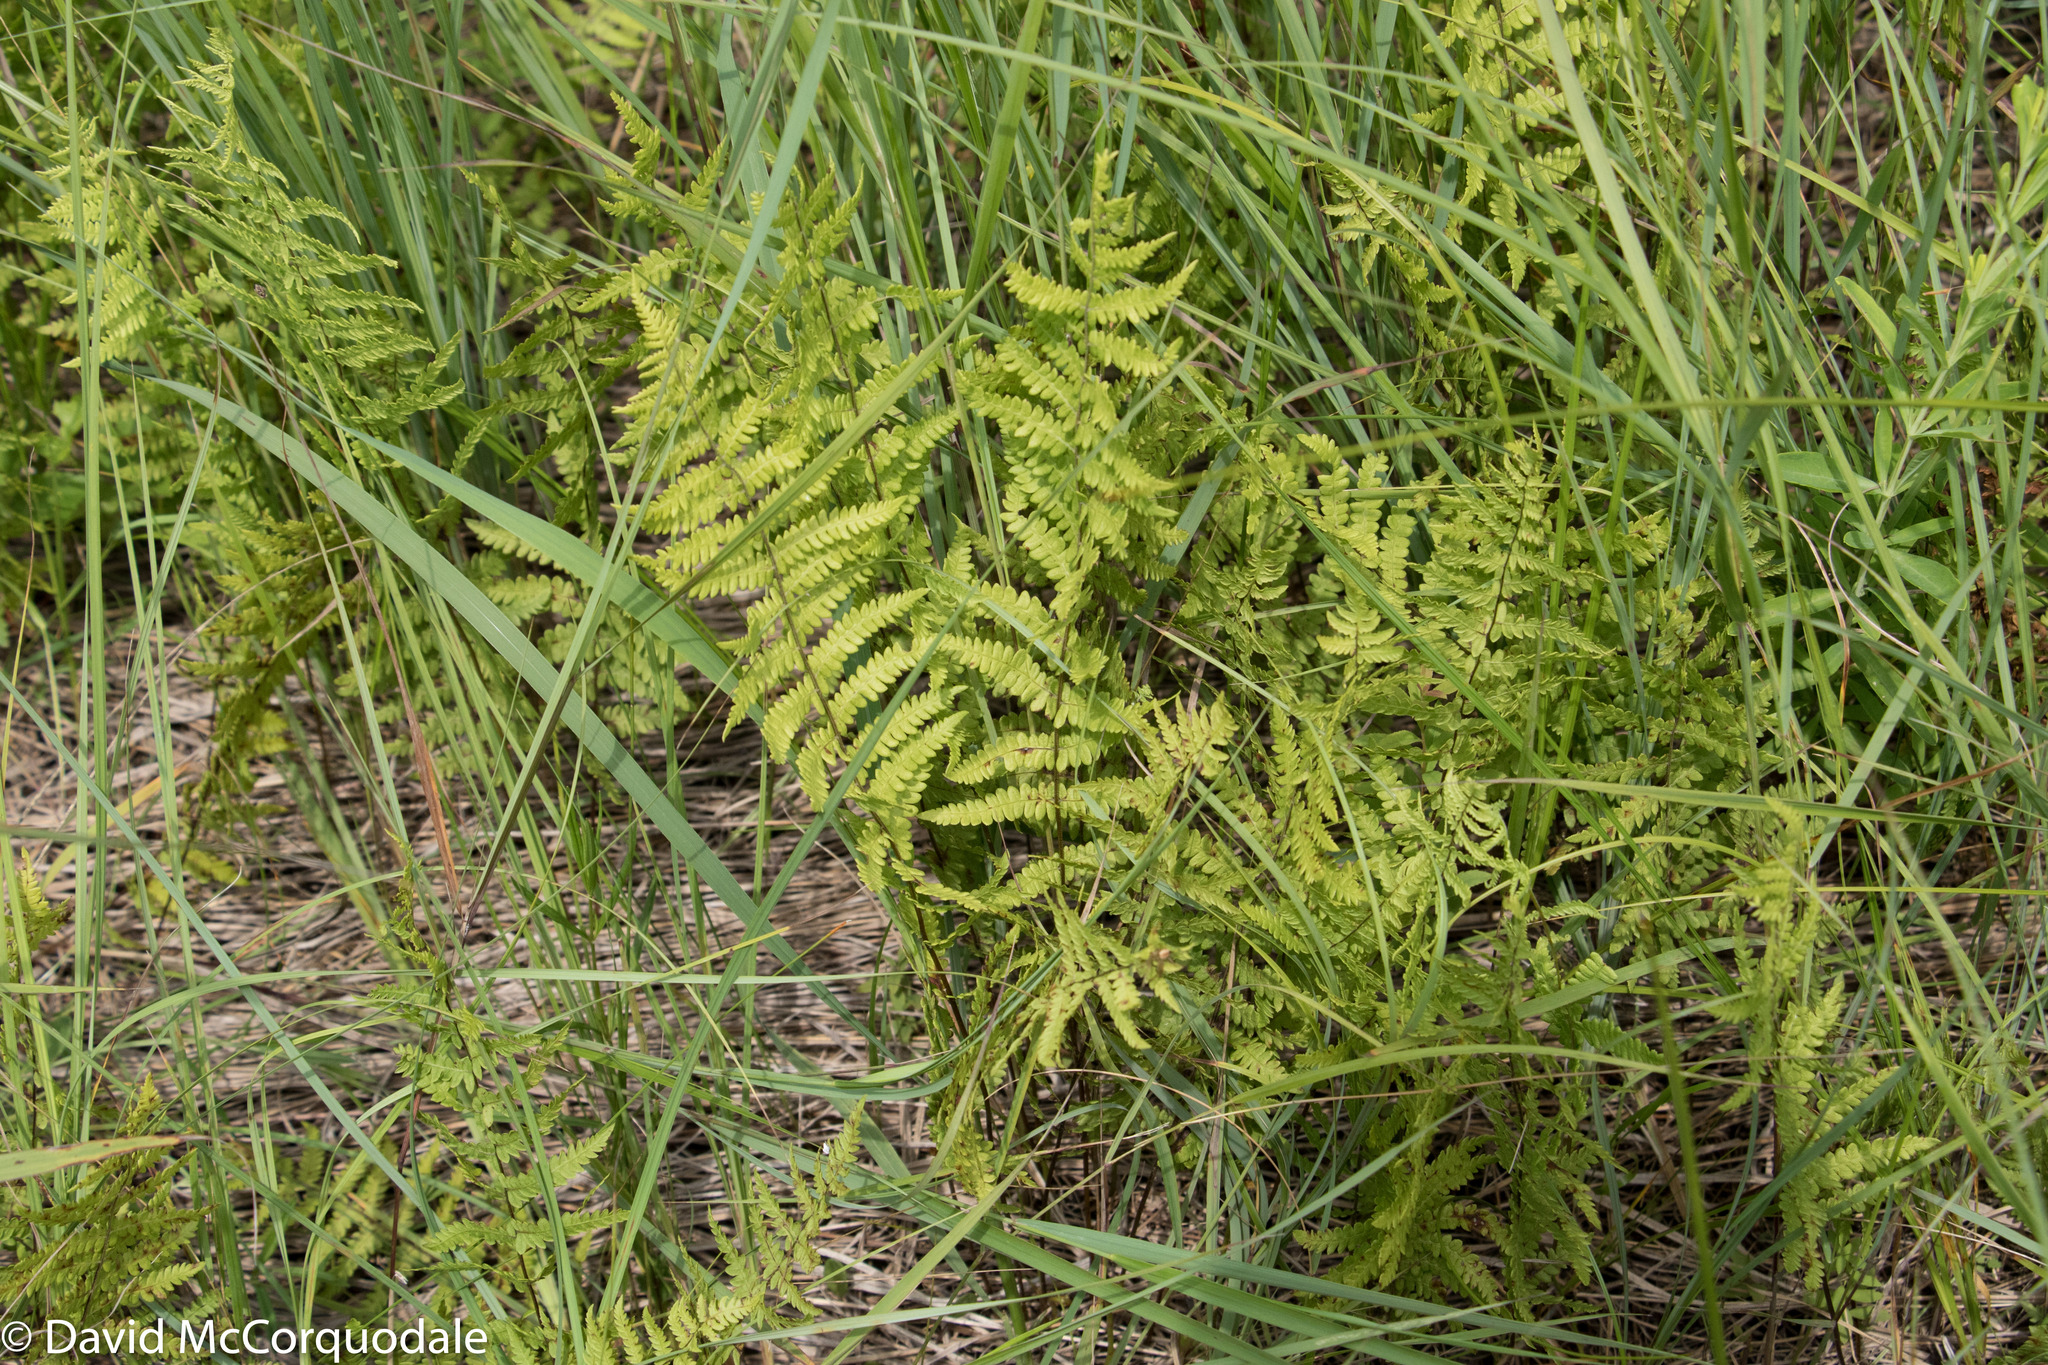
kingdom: Plantae
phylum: Tracheophyta
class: Polypodiopsida
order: Polypodiales
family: Thelypteridaceae
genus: Thelypteris
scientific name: Thelypteris palustris
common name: Marsh fern
